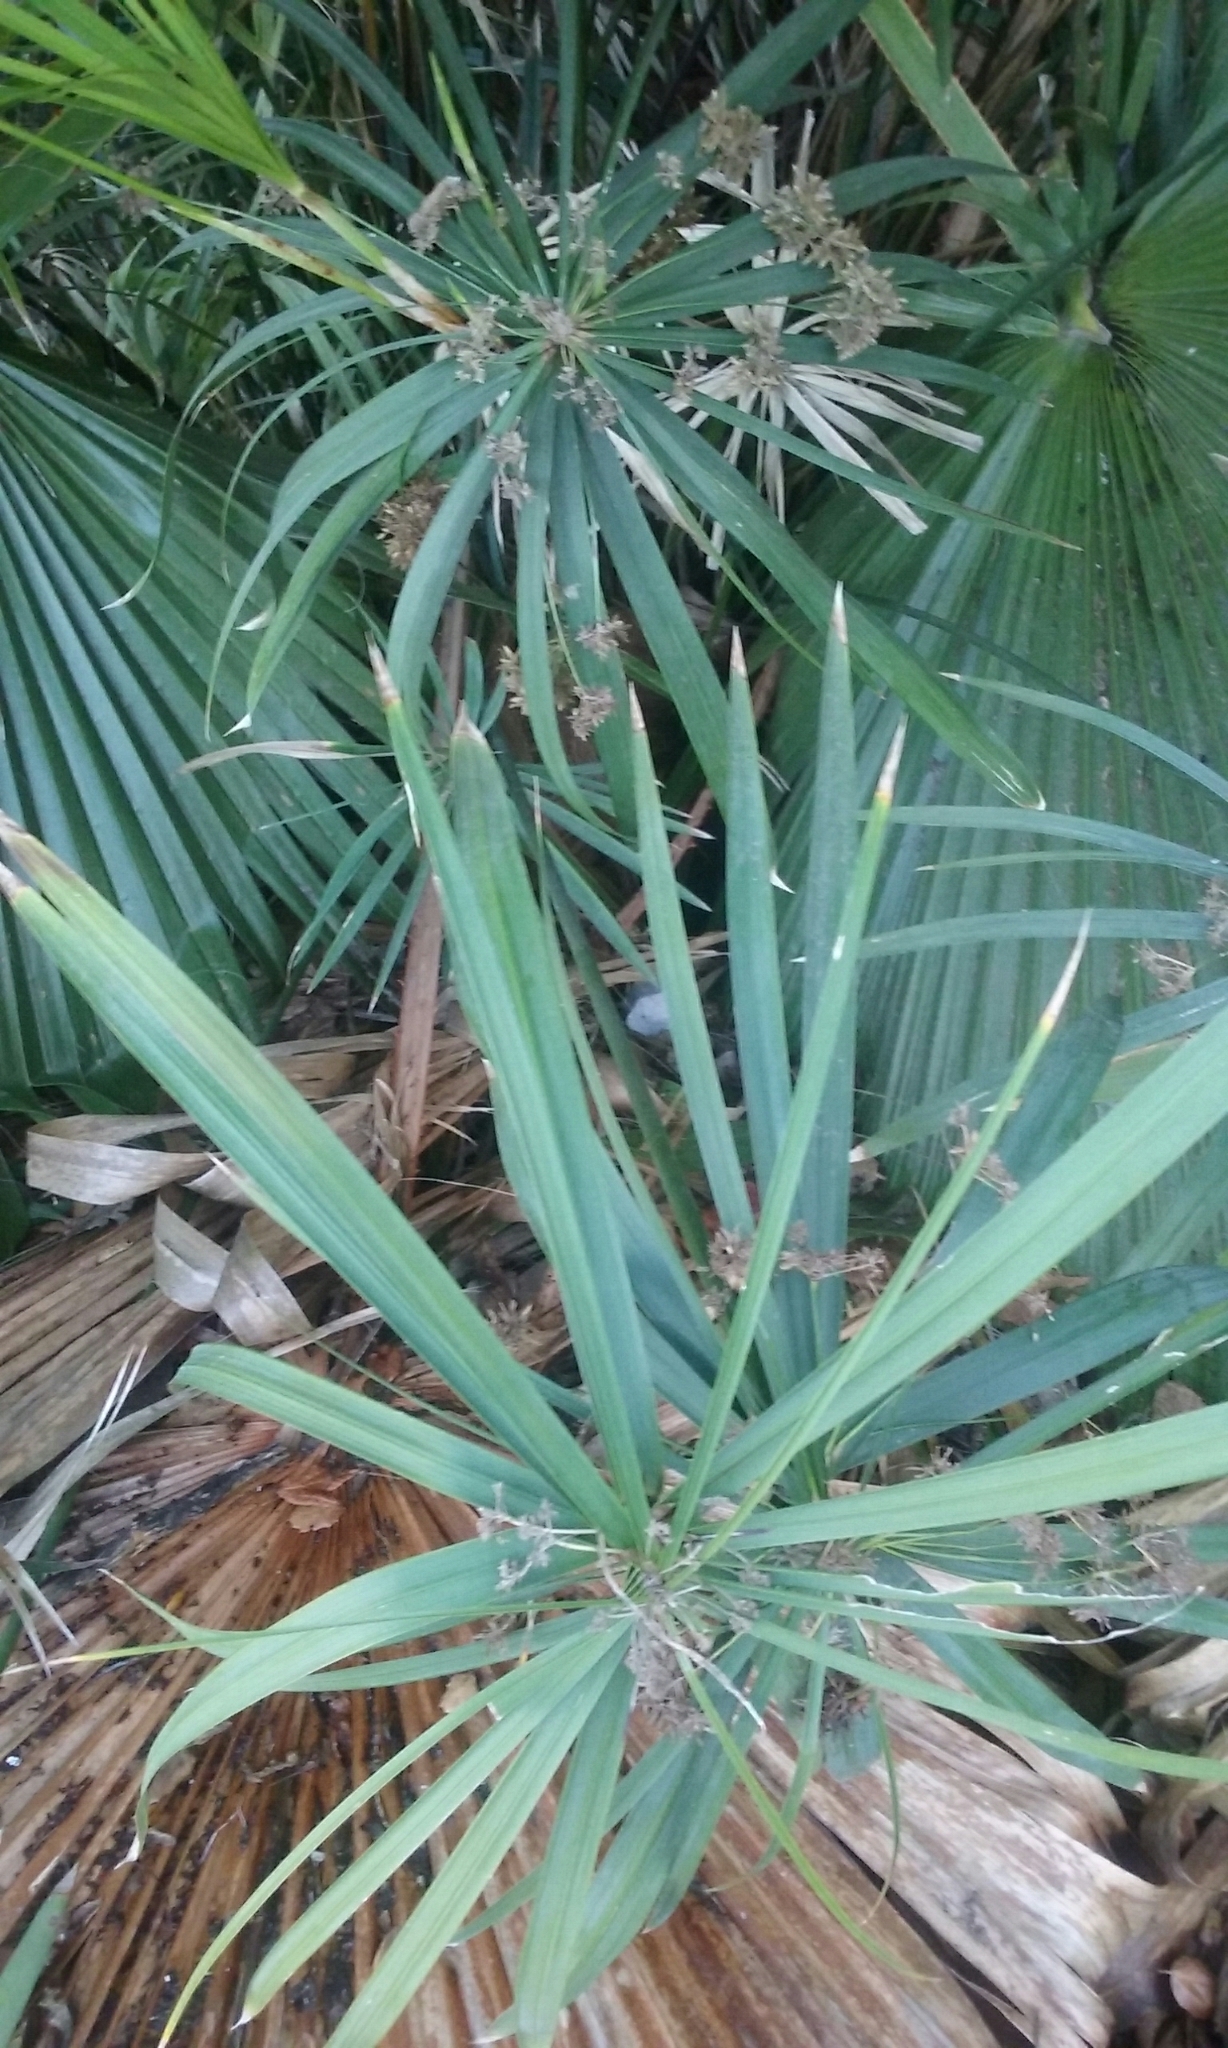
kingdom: Plantae
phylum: Tracheophyta
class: Liliopsida
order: Poales
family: Cyperaceae
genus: Cyperus
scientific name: Cyperus alternifolius
